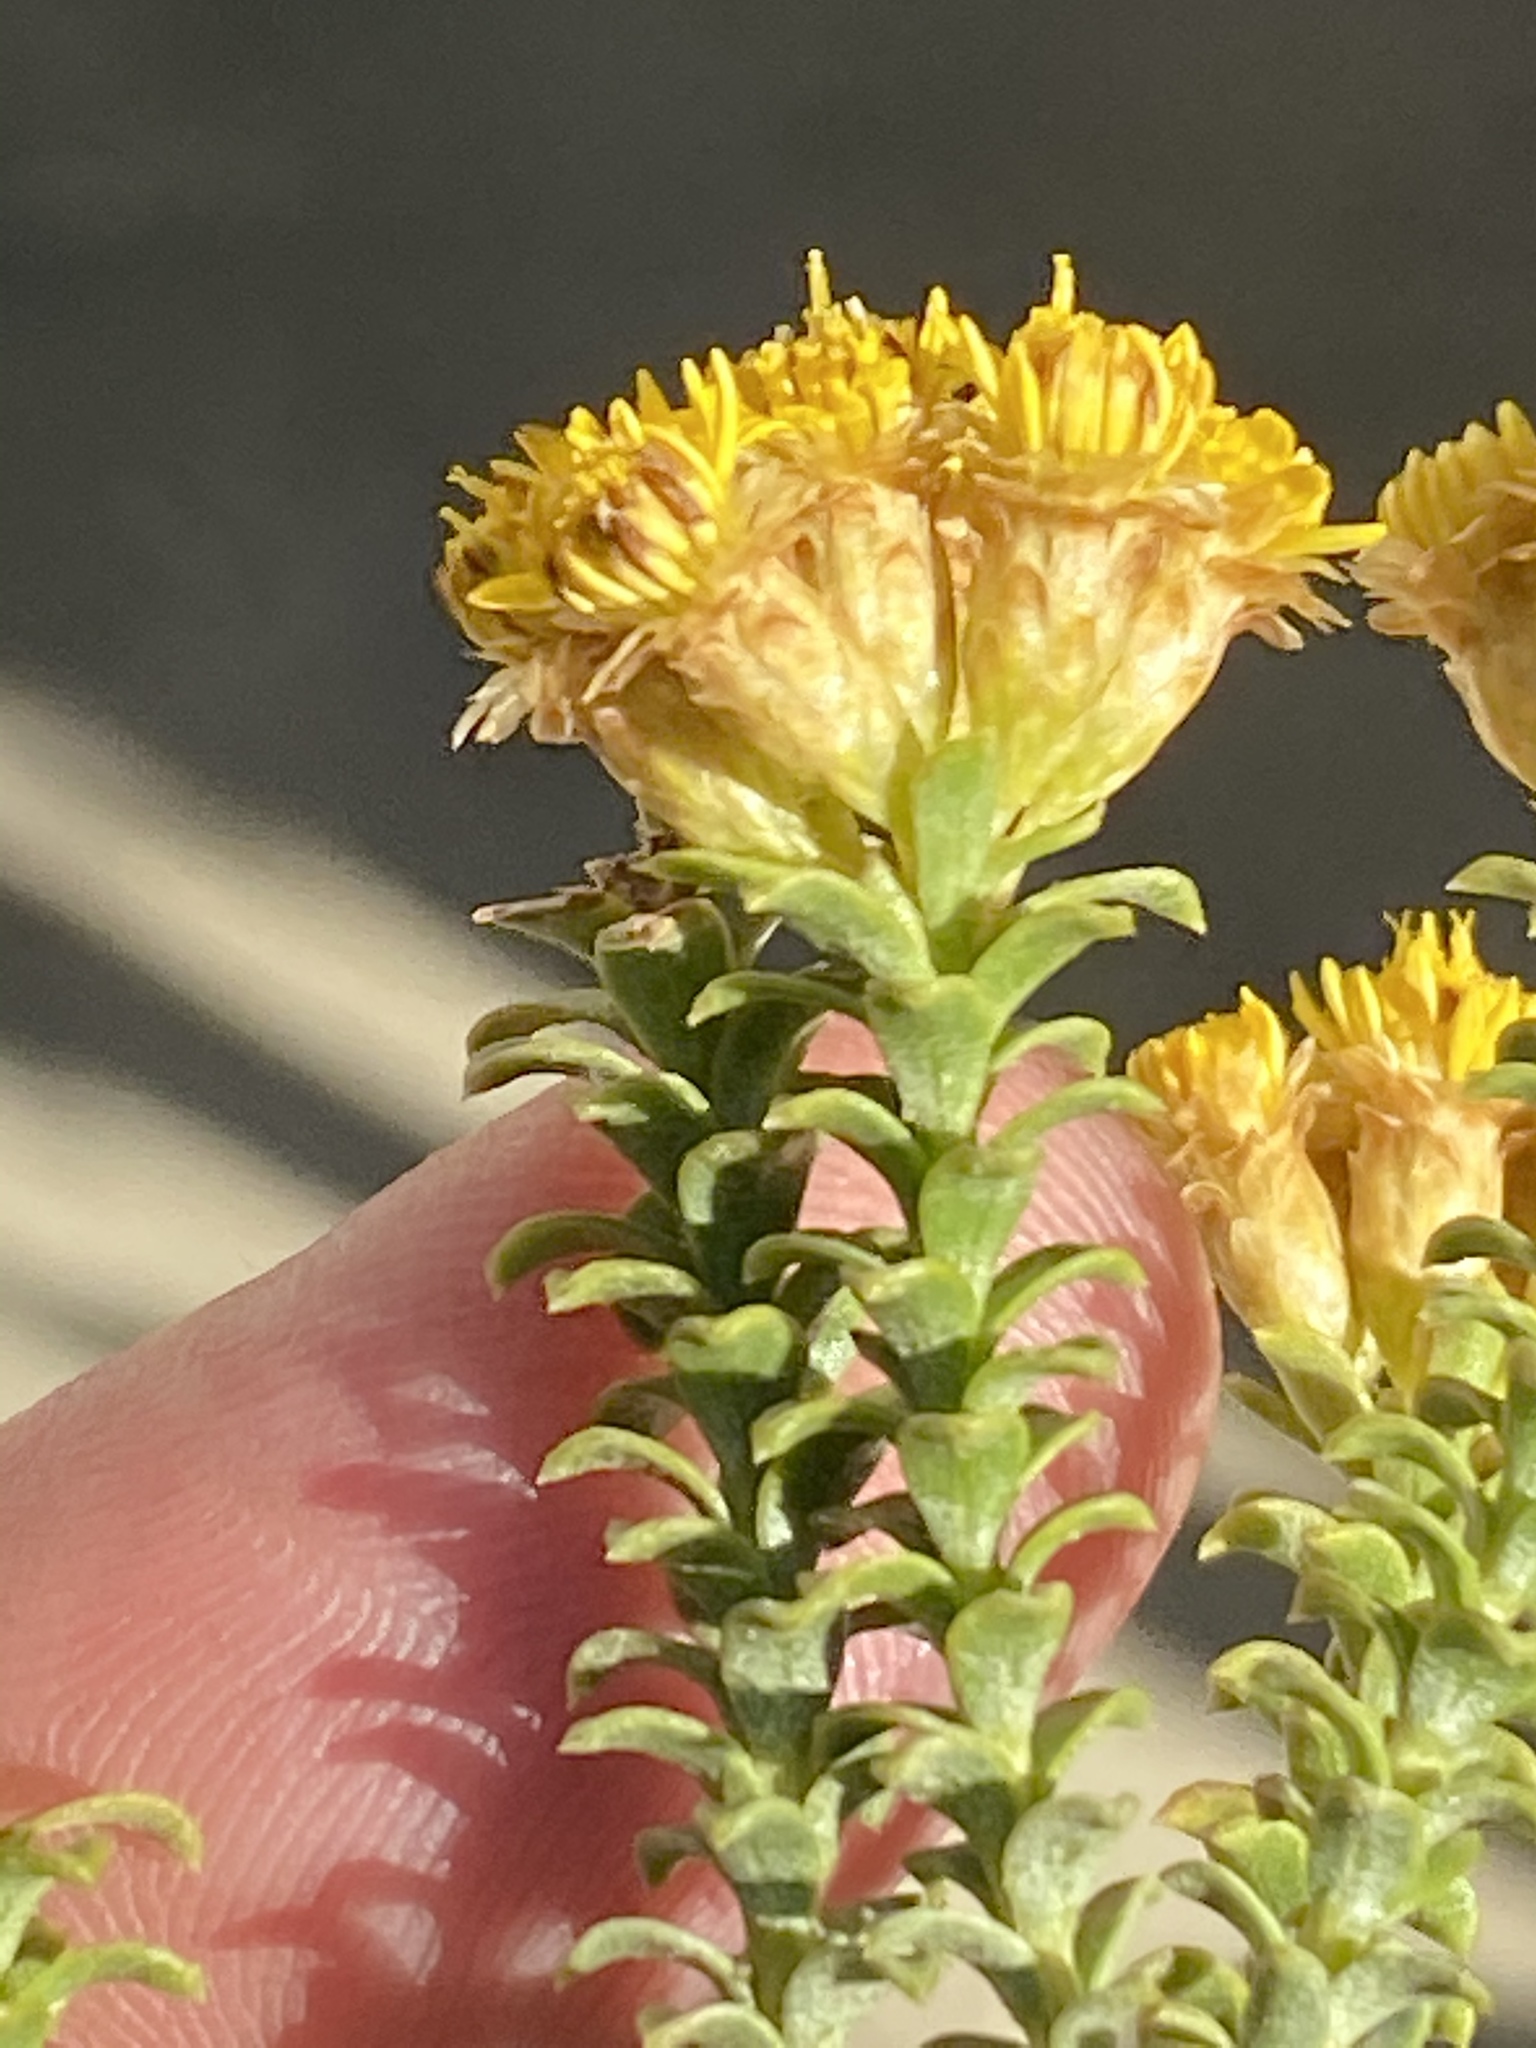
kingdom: Plantae
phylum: Tracheophyta
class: Magnoliopsida
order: Asterales
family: Asteraceae
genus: Oedera
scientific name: Oedera imbricata
